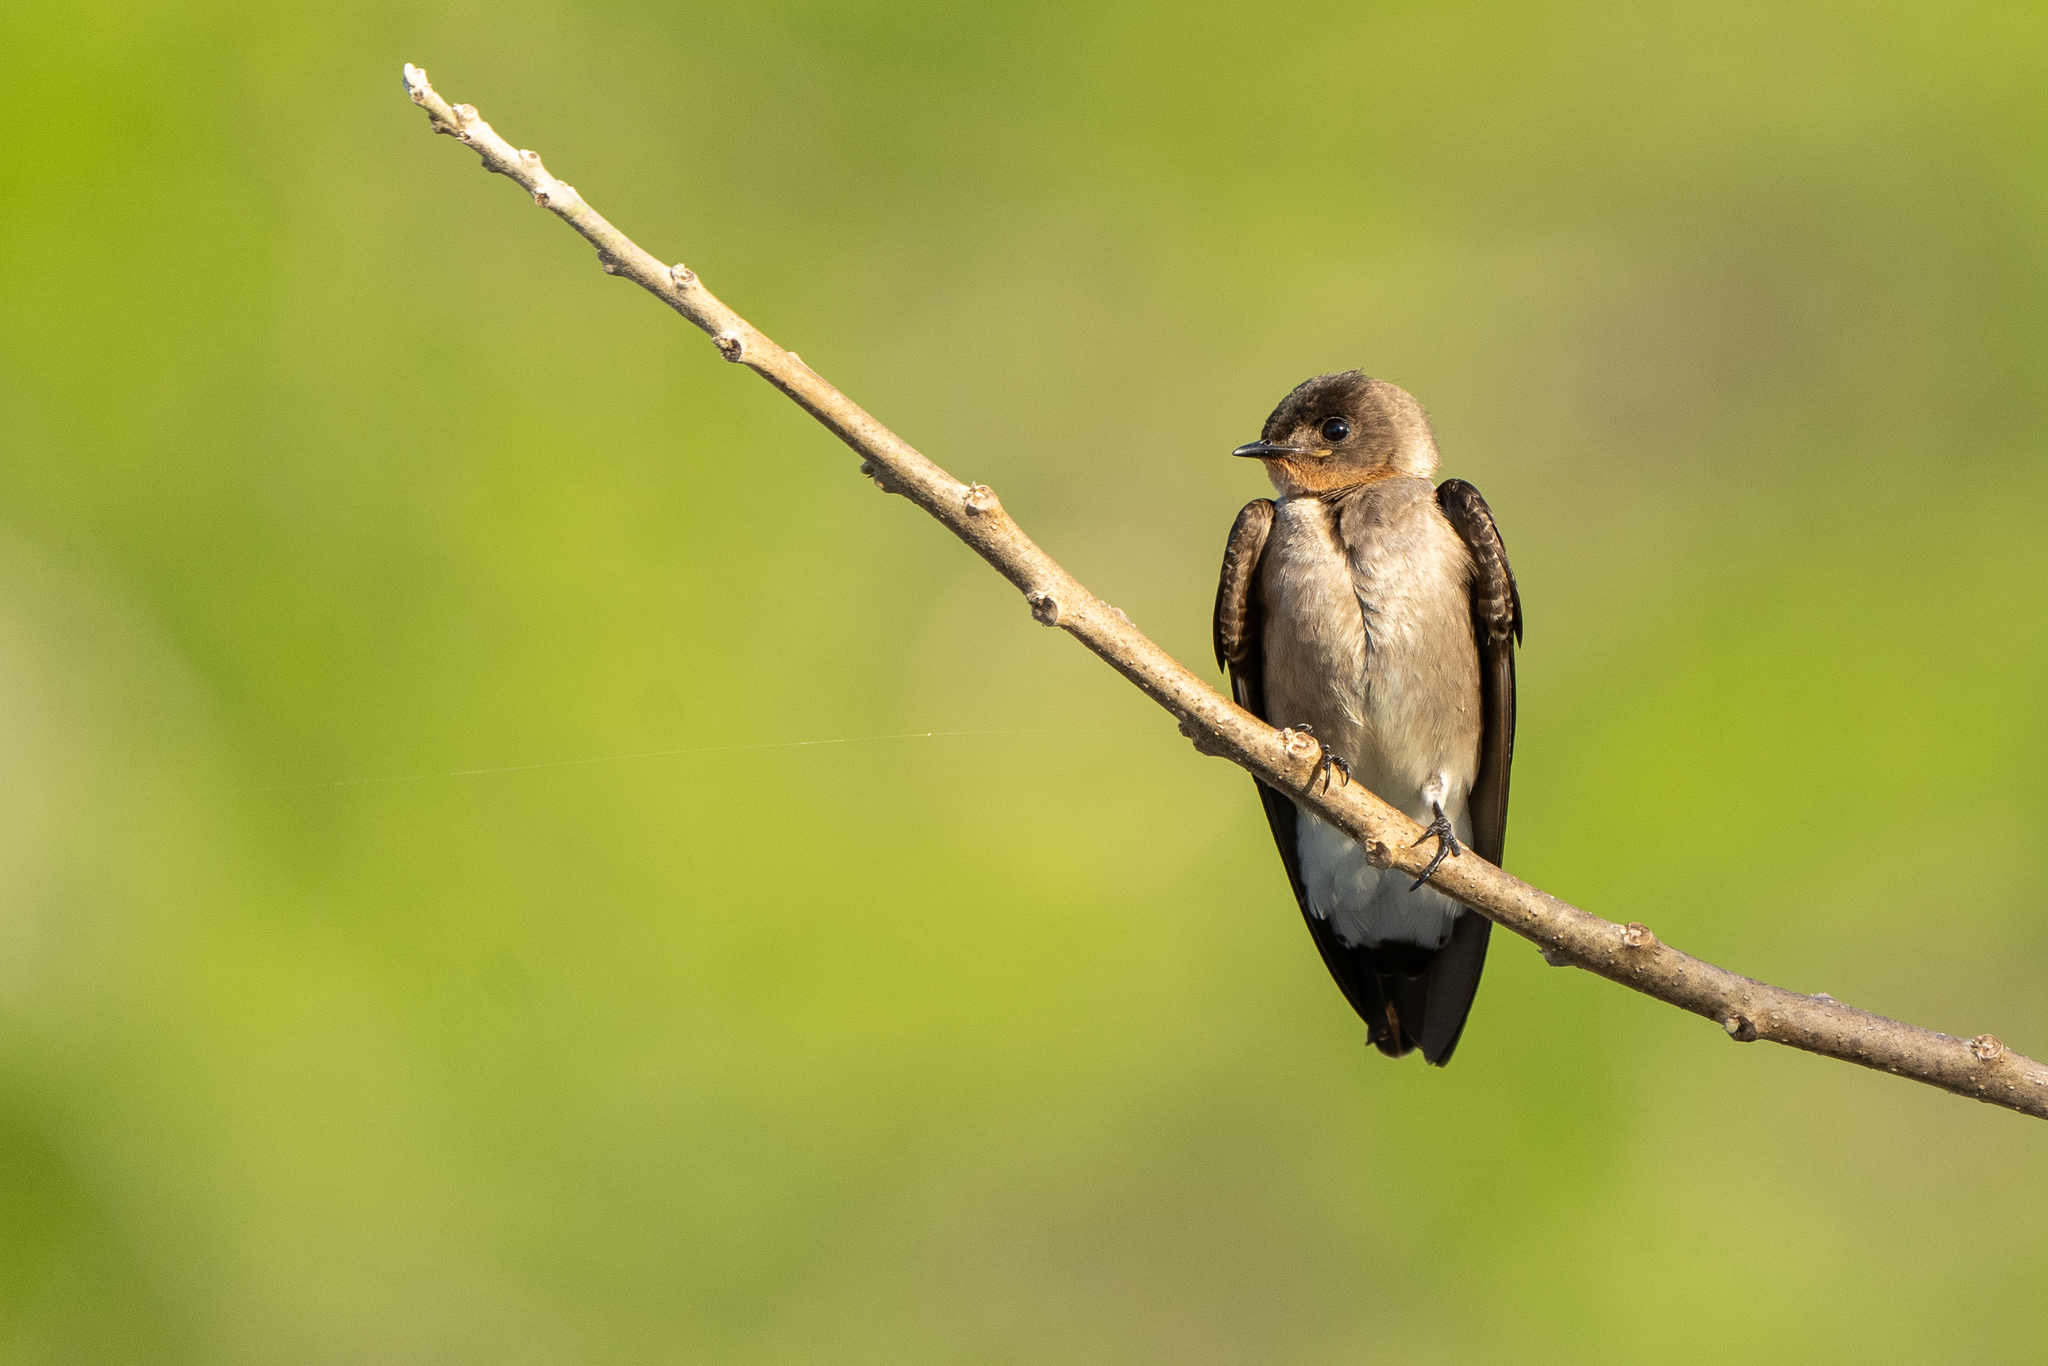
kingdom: Animalia
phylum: Chordata
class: Aves
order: Passeriformes
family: Hirundinidae
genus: Stelgidopteryx
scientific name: Stelgidopteryx ruficollis
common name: Southern rough-winged swallow
